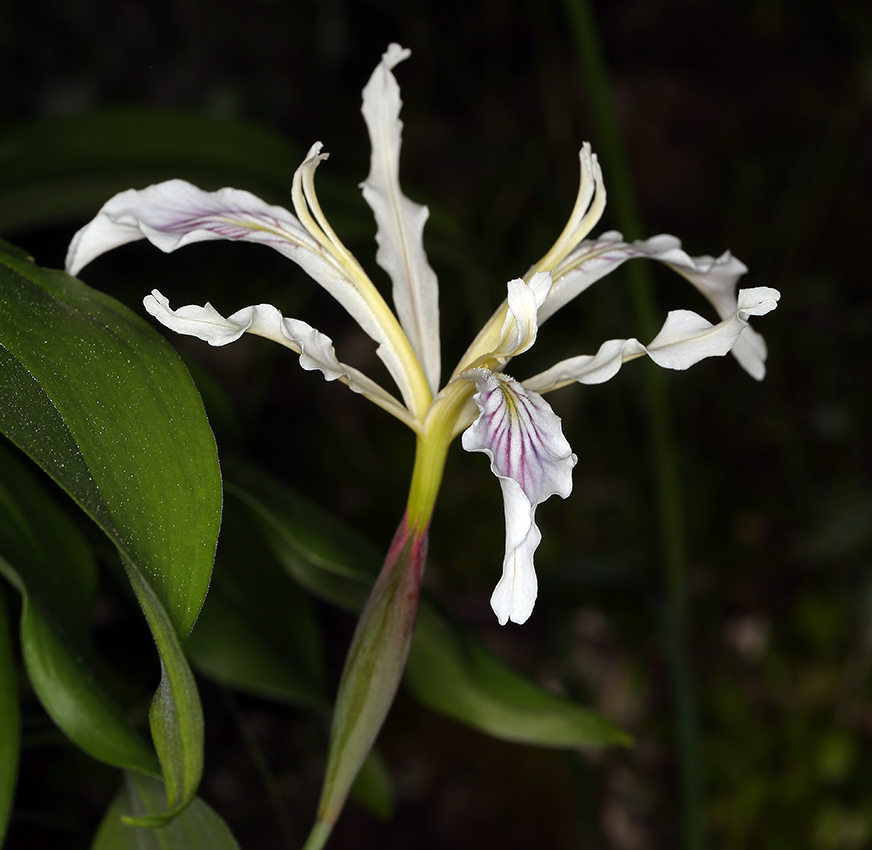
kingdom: Plantae
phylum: Tracheophyta
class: Liliopsida
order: Asparagales
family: Iridaceae
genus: Iris
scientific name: Iris tenuissima
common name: Long-tube iris
